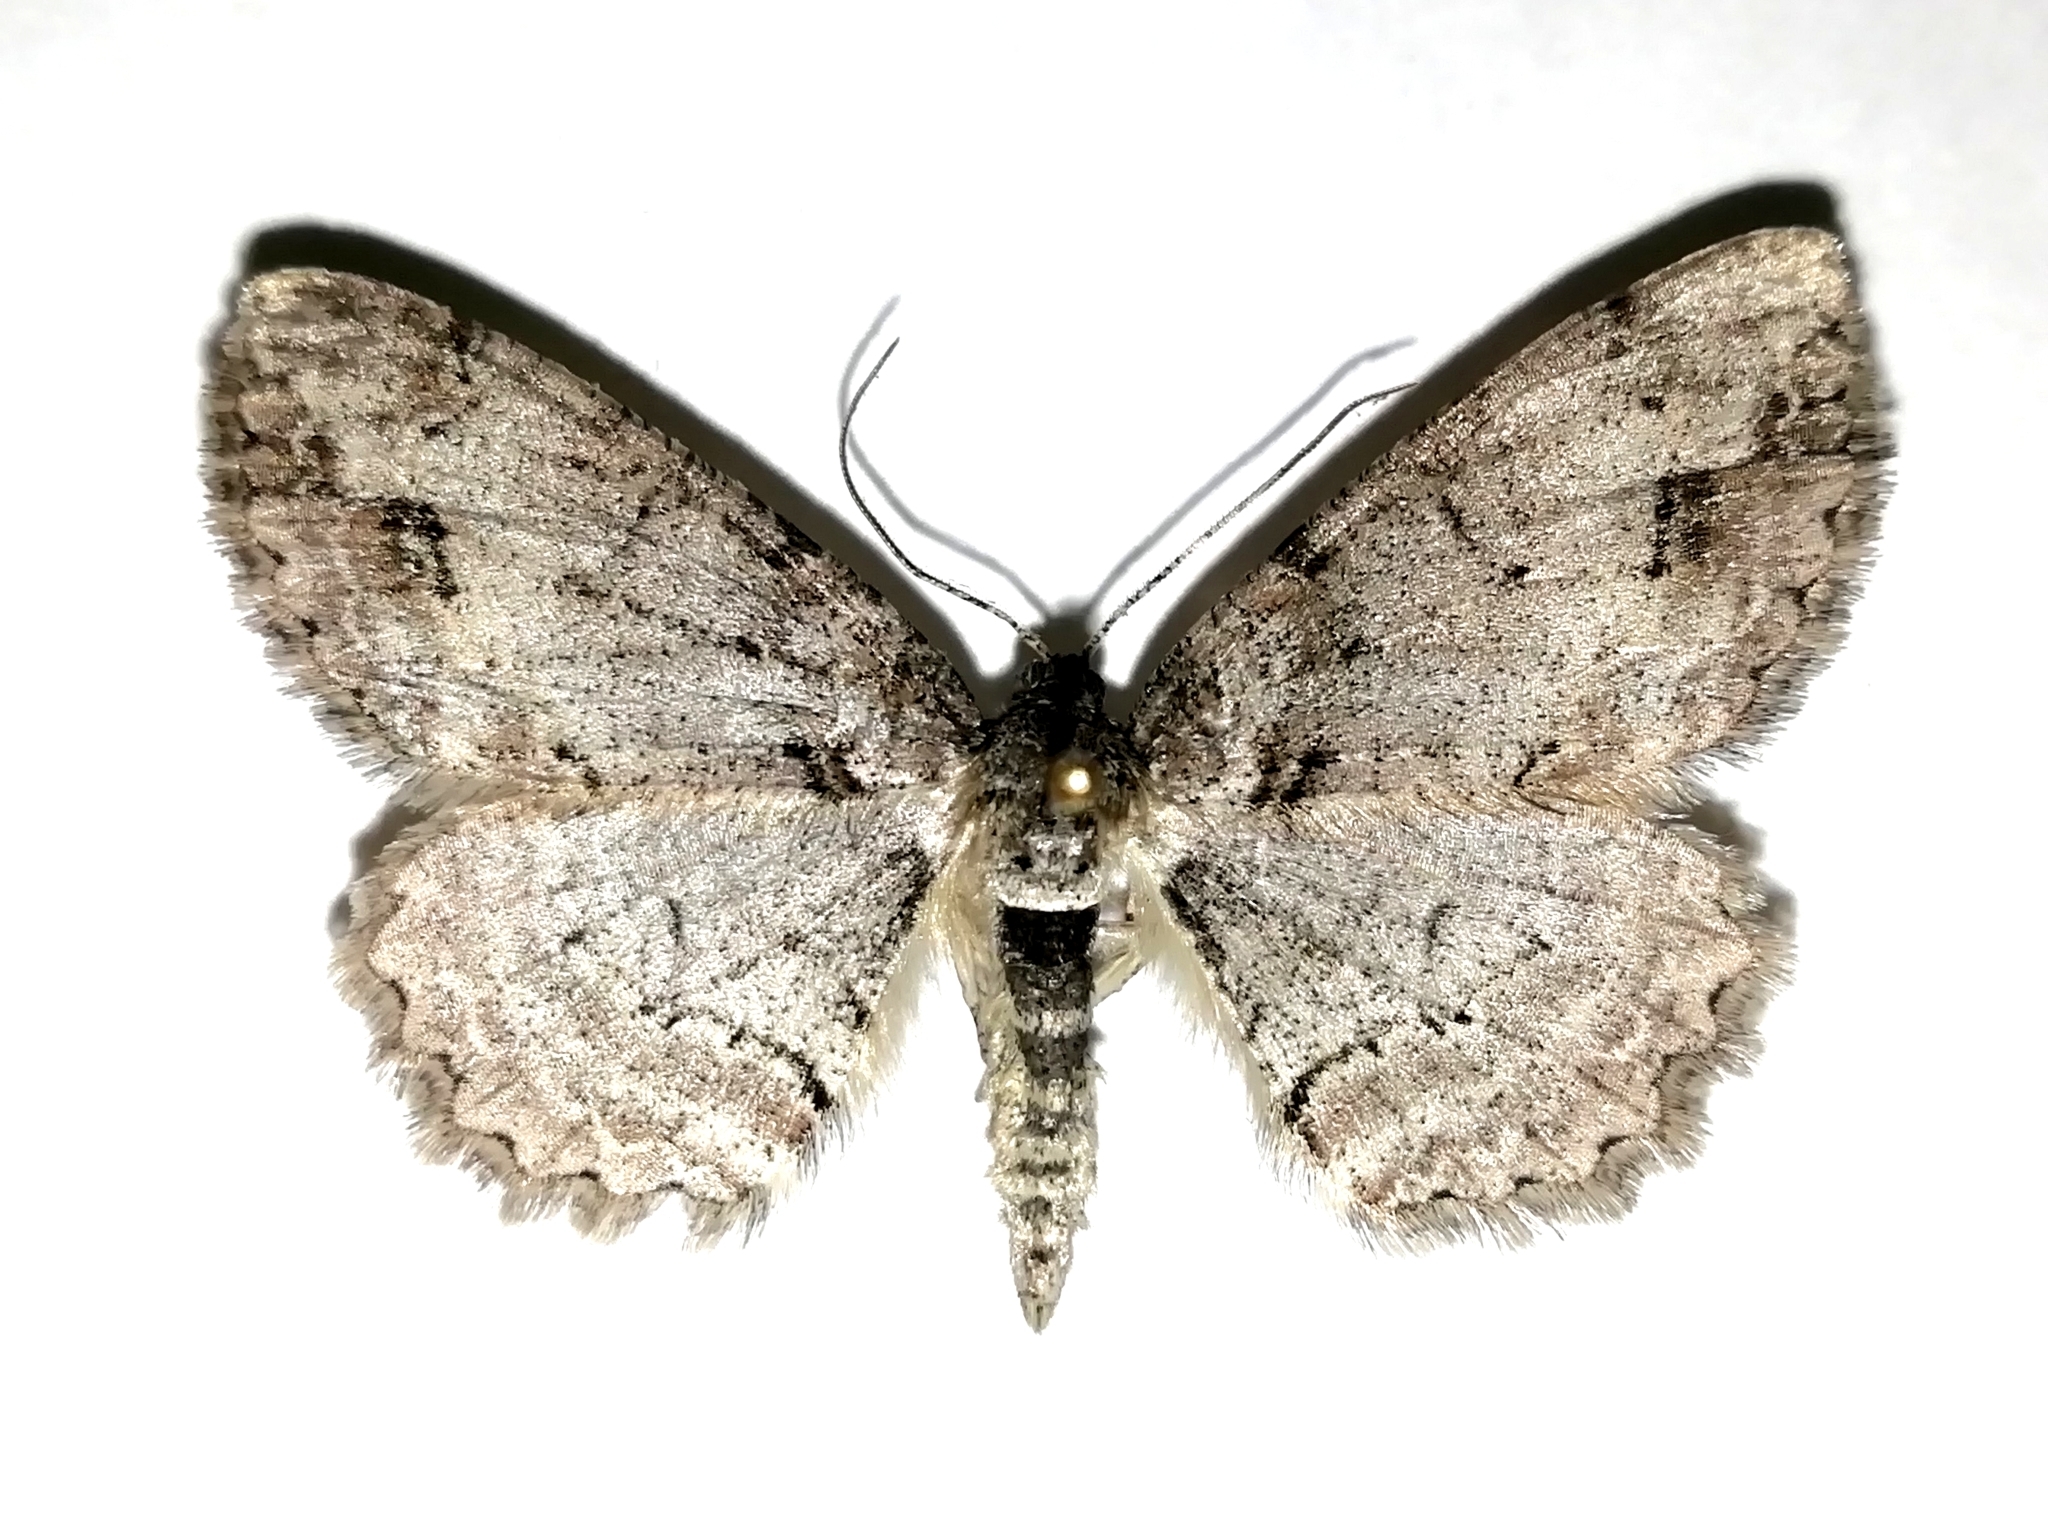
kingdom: Animalia
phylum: Arthropoda
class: Insecta
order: Lepidoptera
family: Geometridae
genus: Paradarisa
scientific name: Paradarisa consonaria
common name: Square spot
